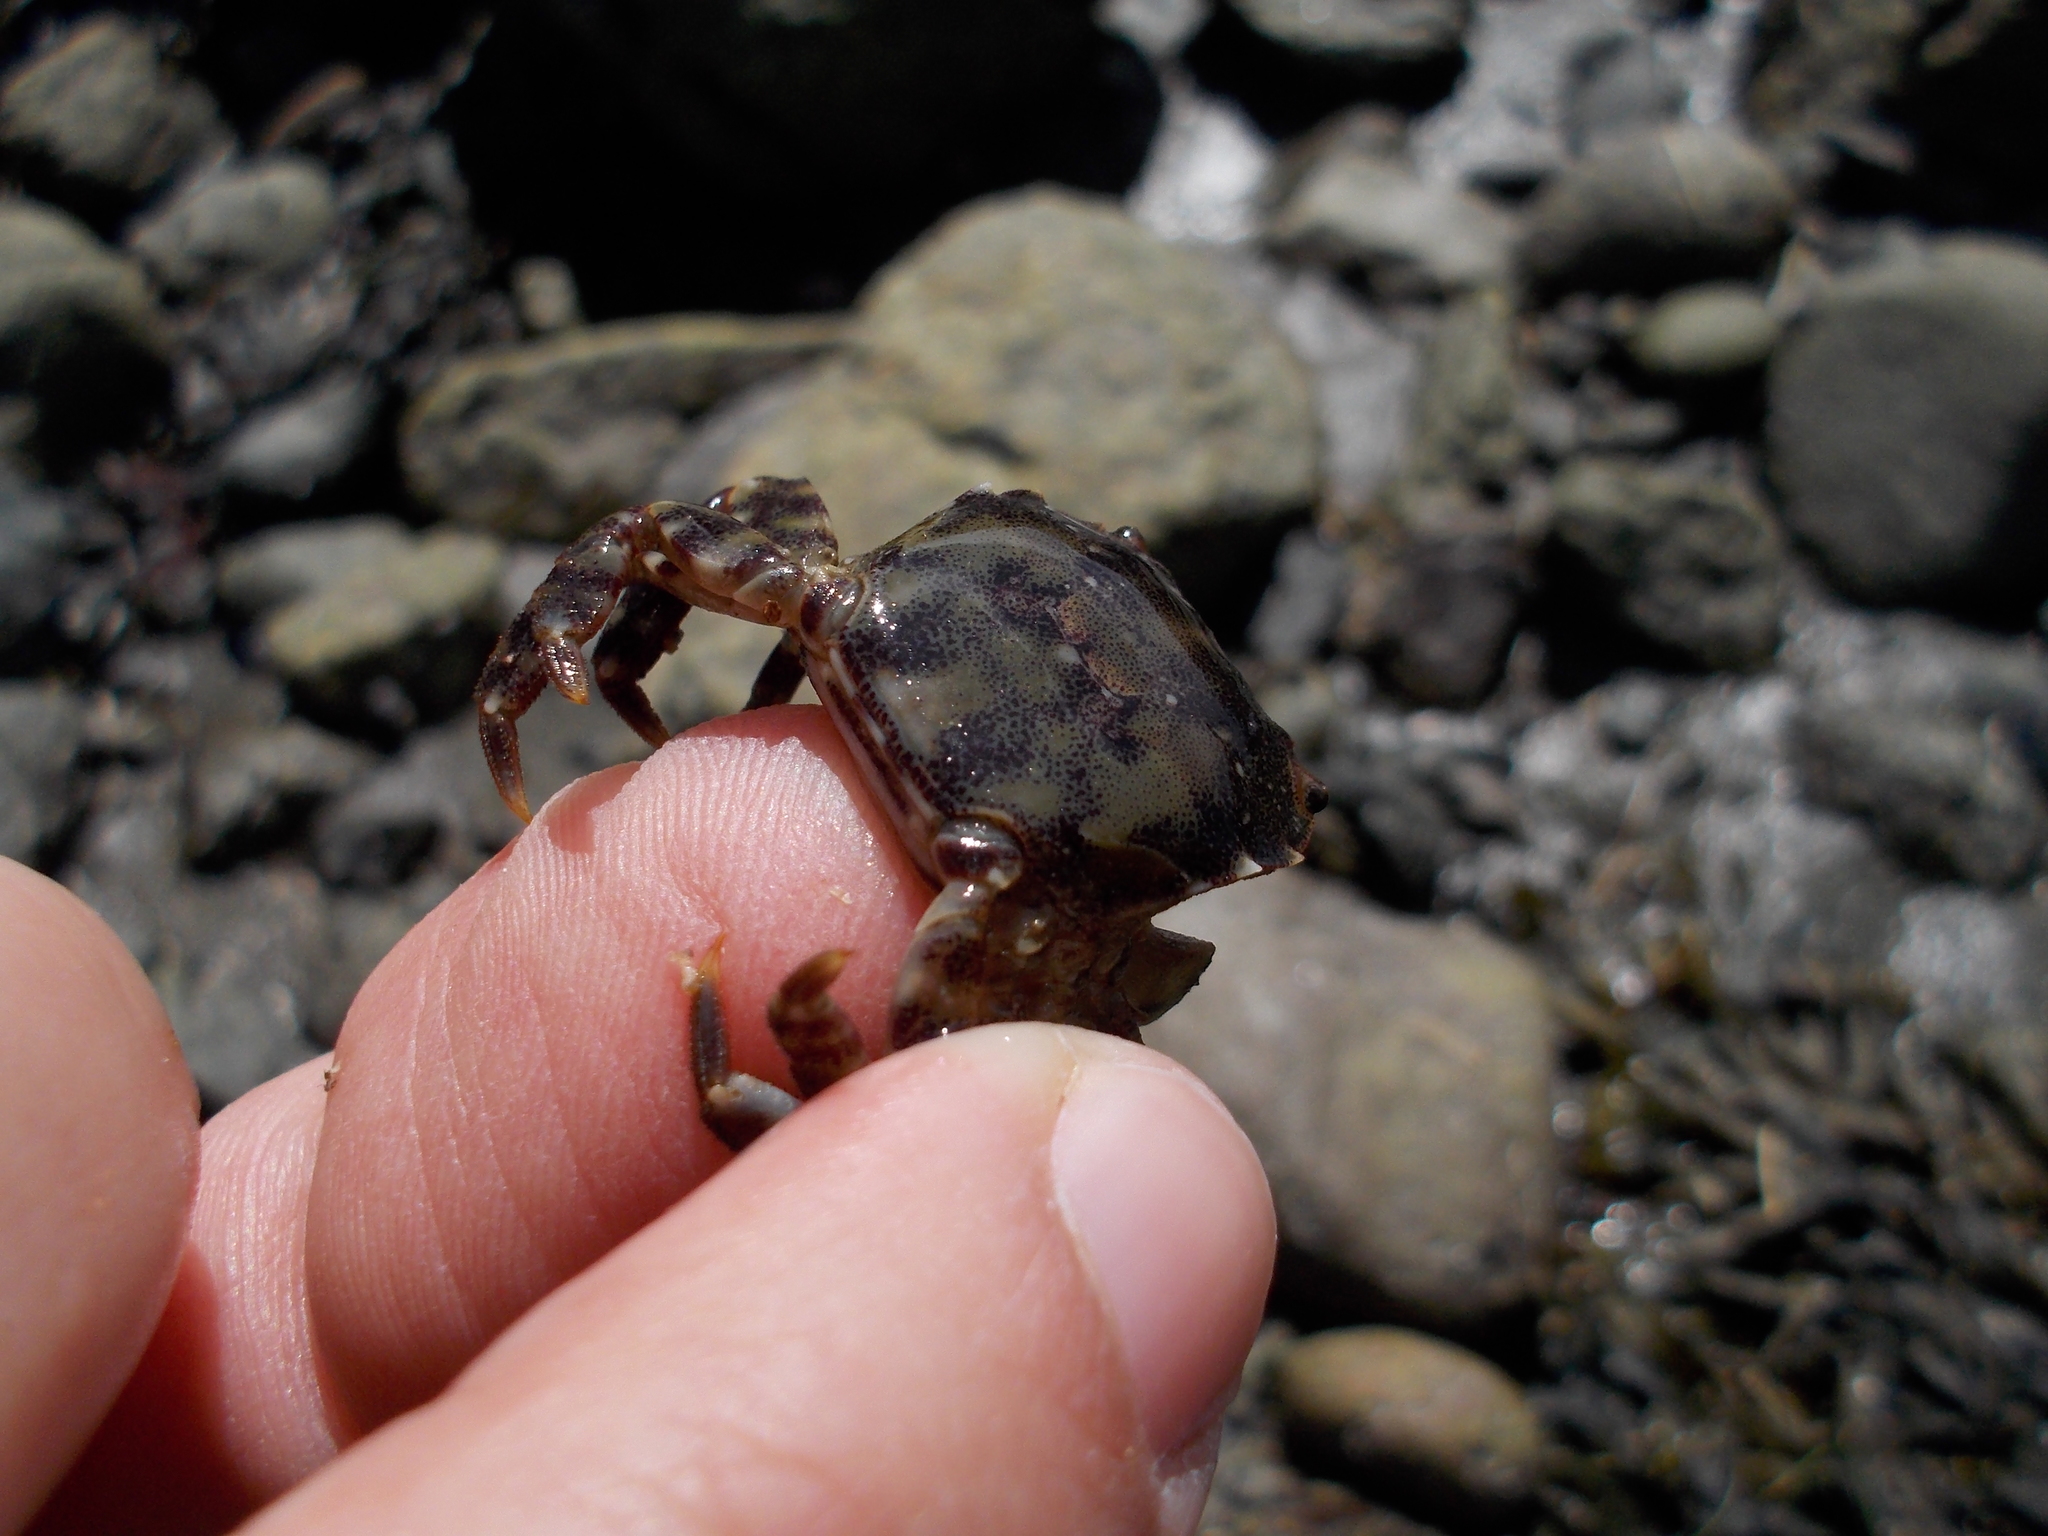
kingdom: Animalia
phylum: Arthropoda
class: Malacostraca
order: Decapoda
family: Varunidae
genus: Hemigrapsus
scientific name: Hemigrapsus sanguineus
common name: Asian shore crab
